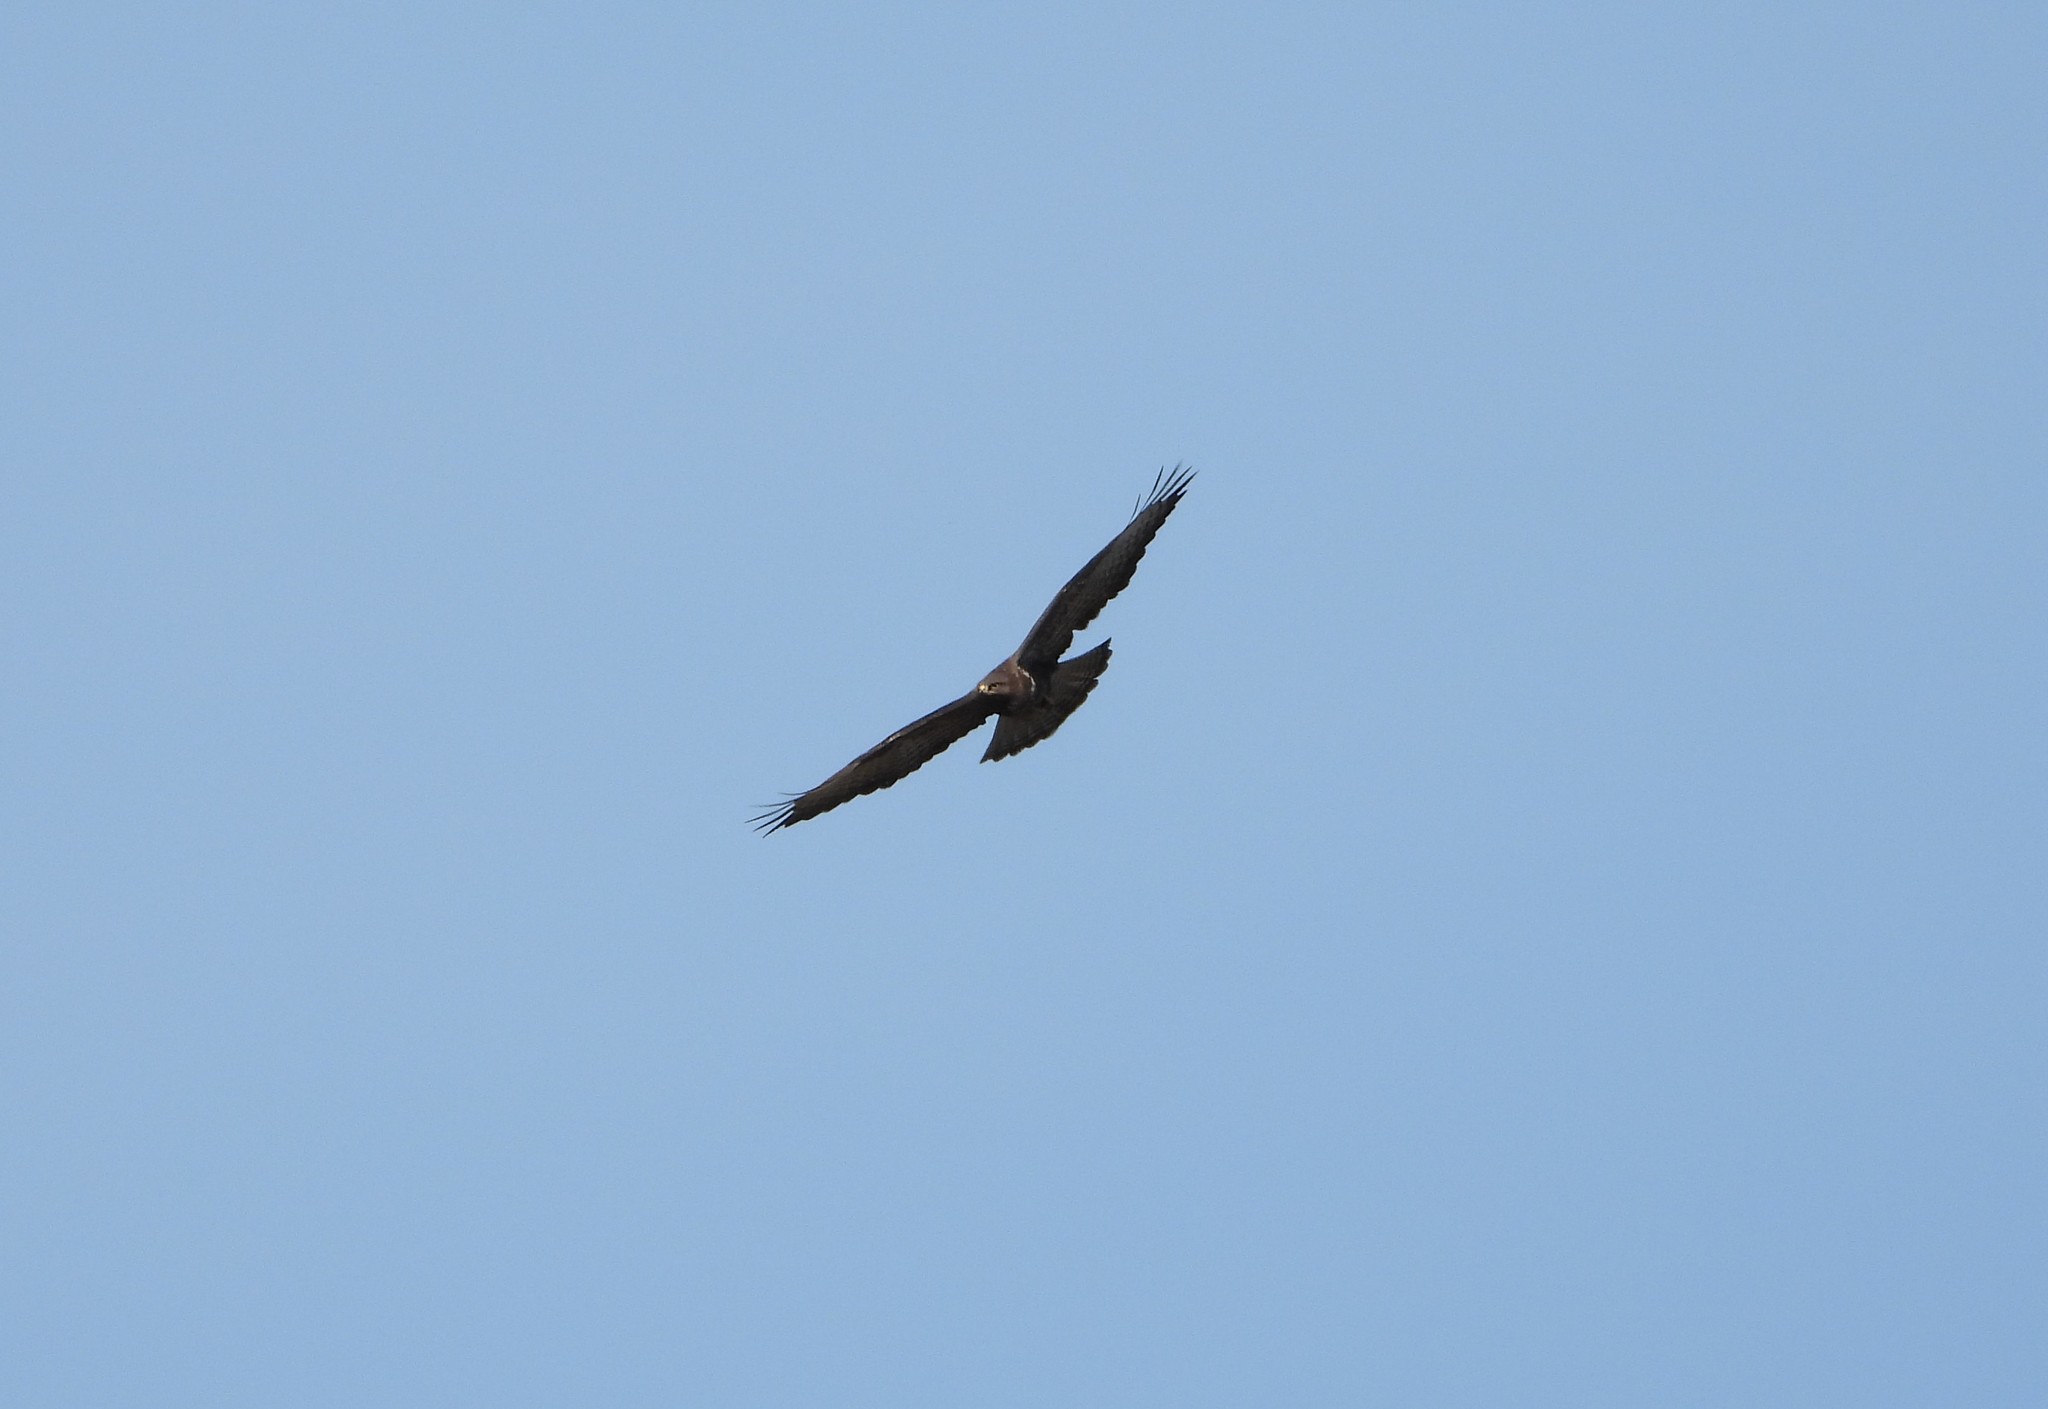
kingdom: Animalia
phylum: Chordata
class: Aves
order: Accipitriformes
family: Accipitridae
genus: Buteo
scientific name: Buteo buteo
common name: Common buzzard
